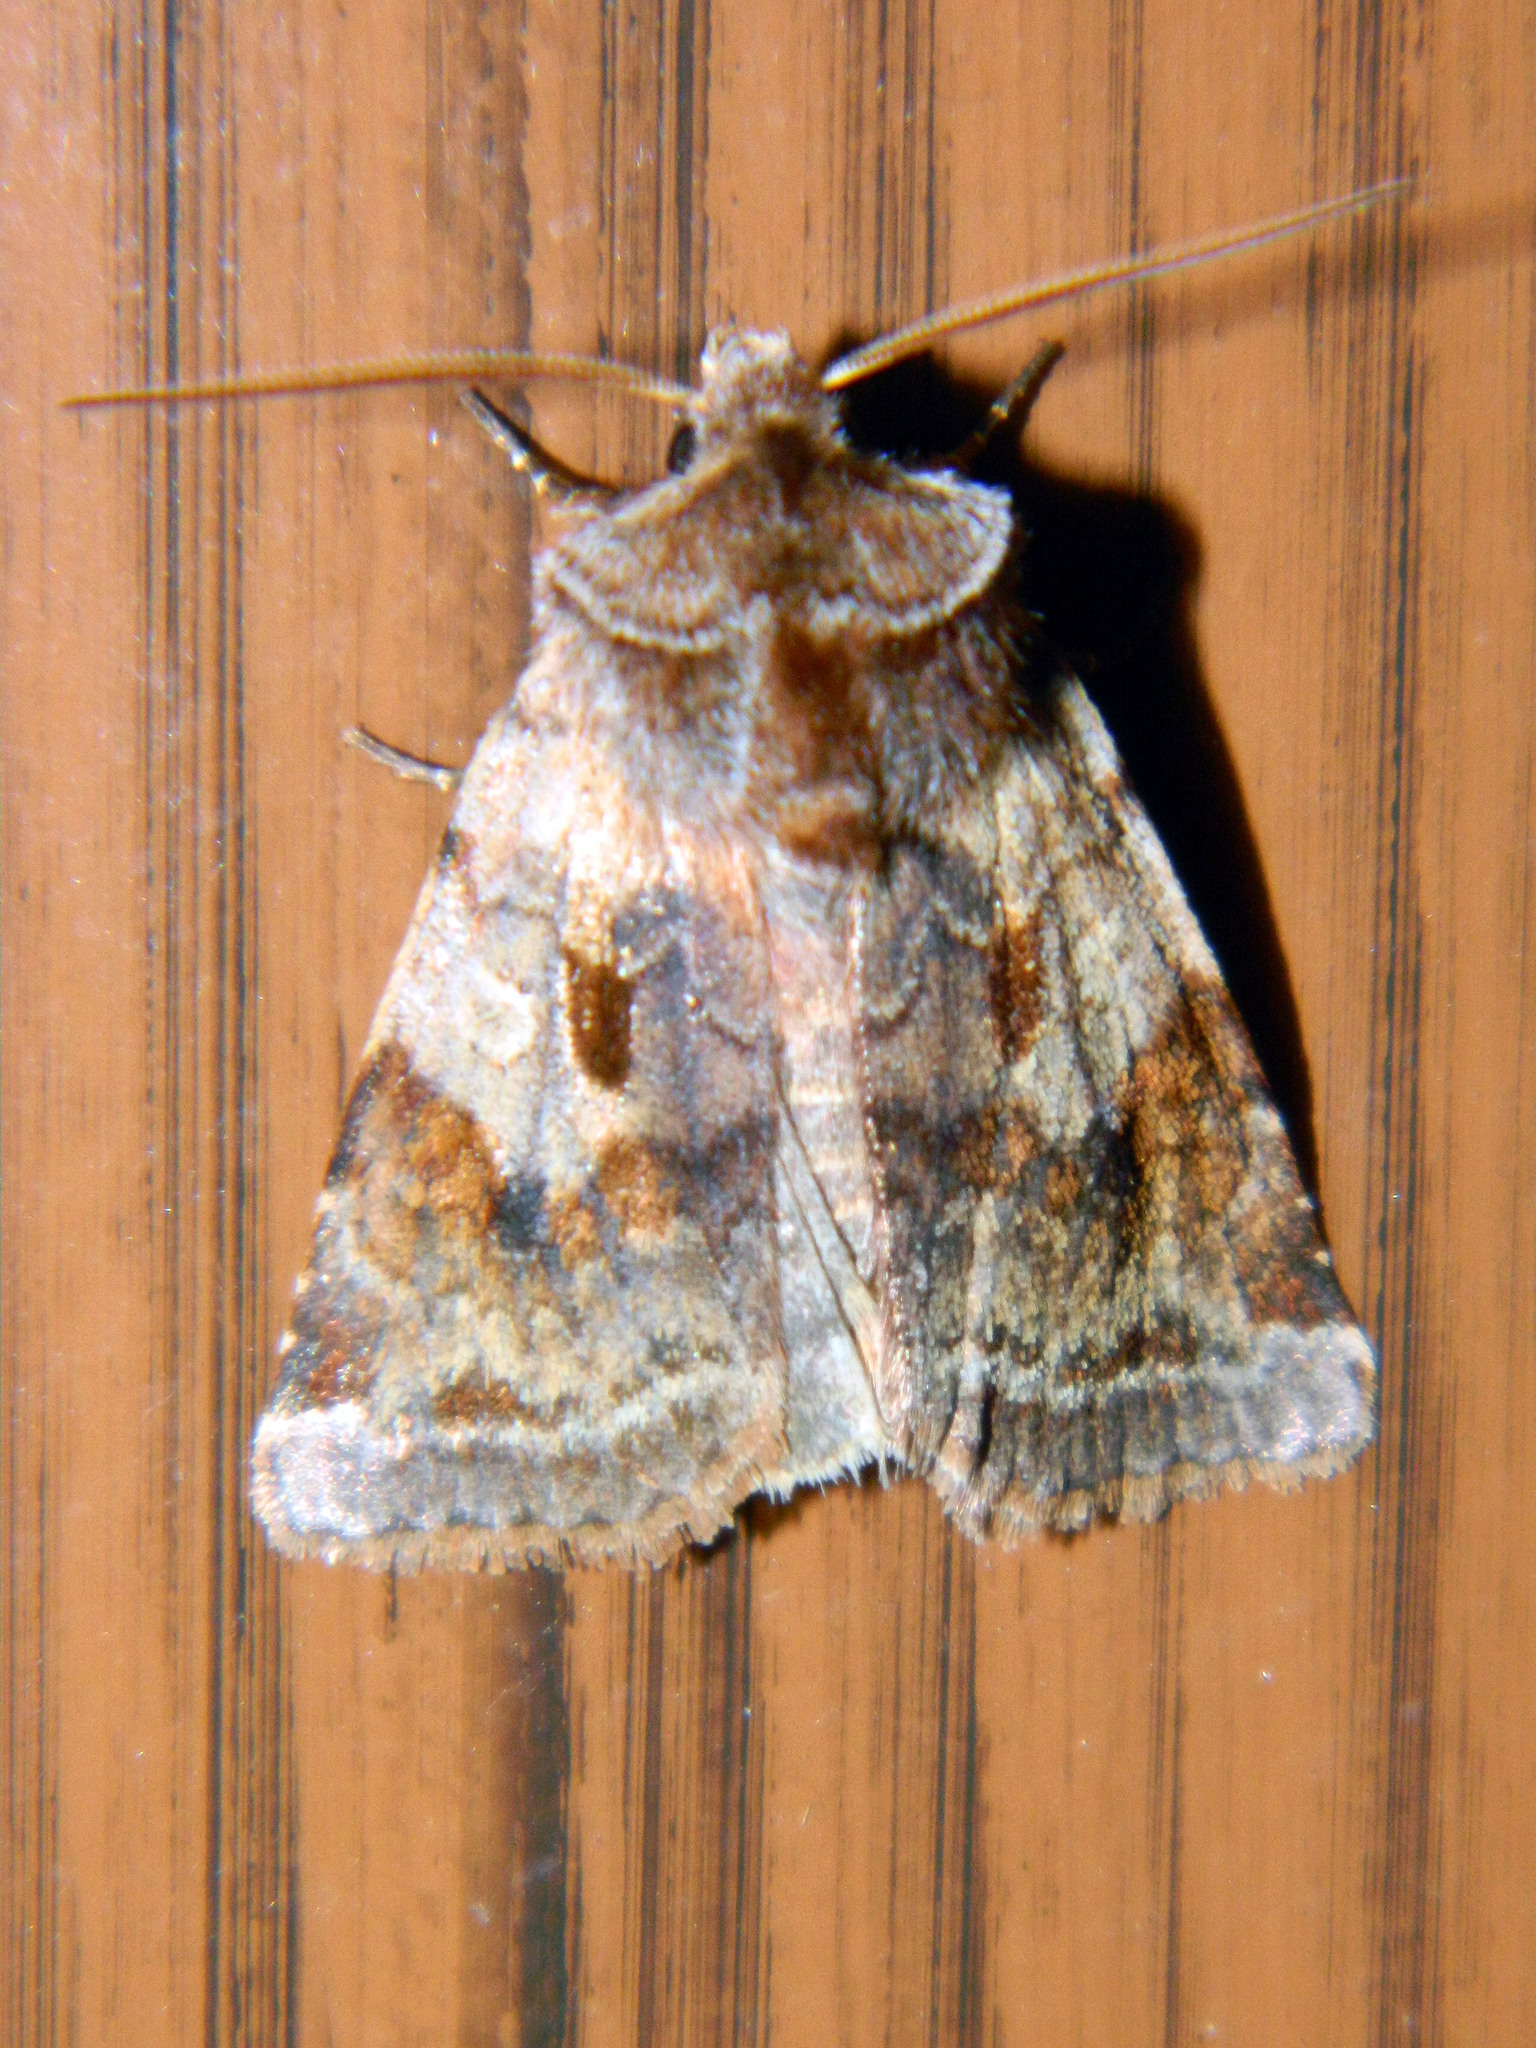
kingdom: Animalia
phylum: Arthropoda
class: Insecta
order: Lepidoptera
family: Noctuidae
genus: Cerastis
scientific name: Cerastis salicarum
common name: Willow dart
